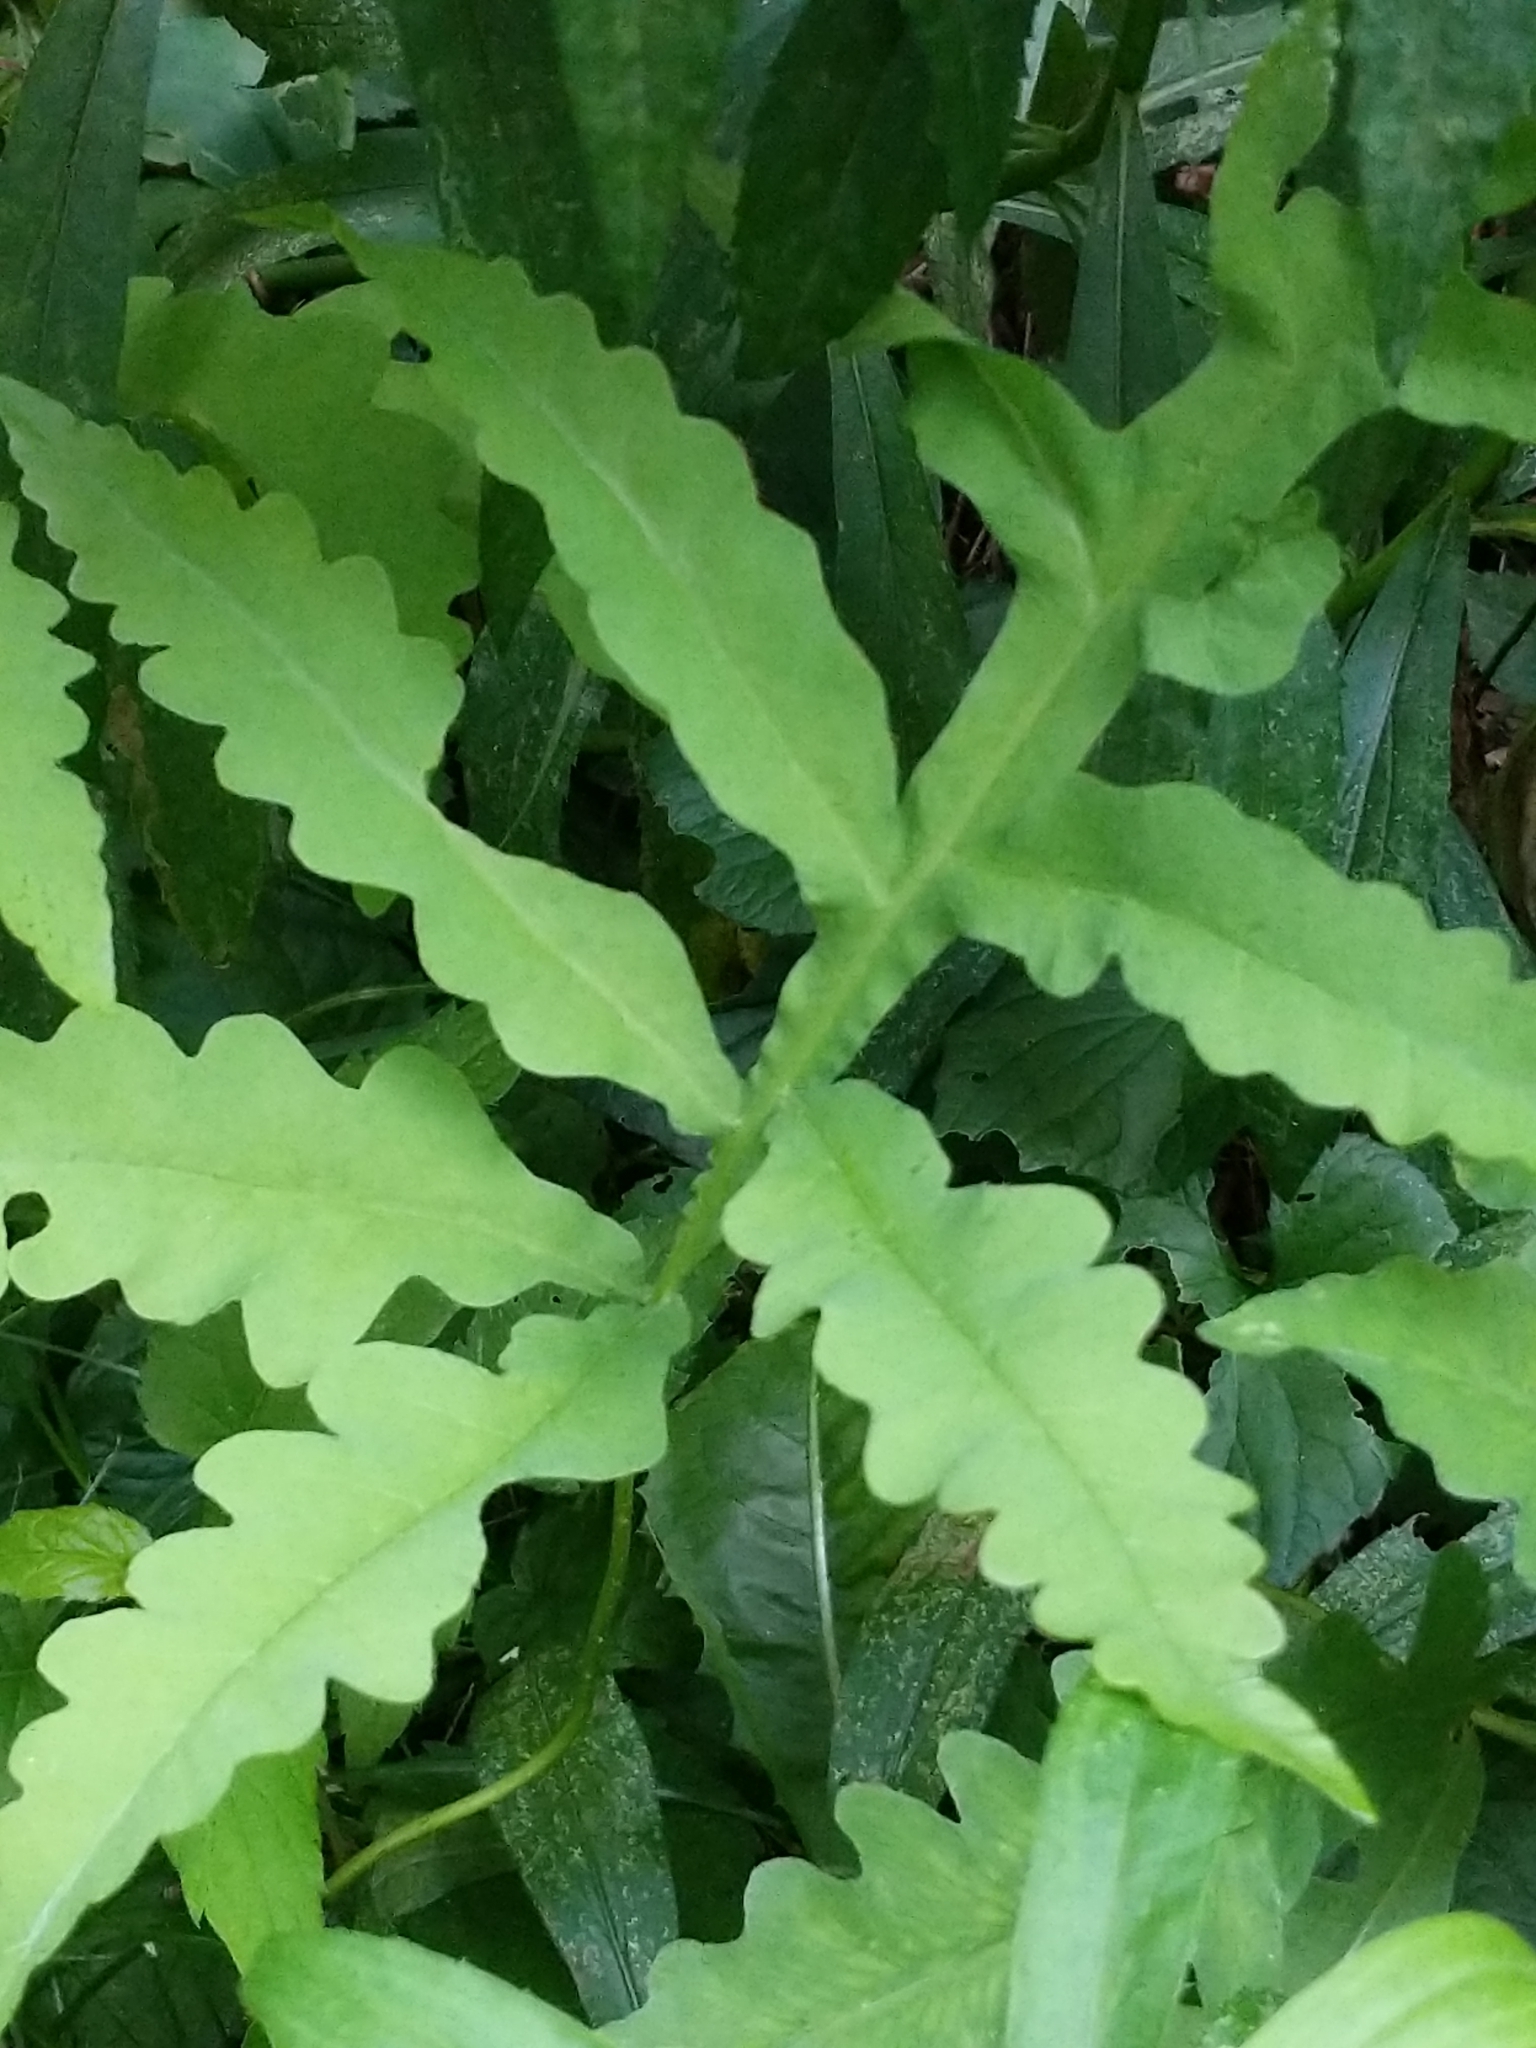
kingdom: Plantae
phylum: Tracheophyta
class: Polypodiopsida
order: Polypodiales
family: Onocleaceae
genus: Onoclea
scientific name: Onoclea sensibilis
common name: Sensitive fern
